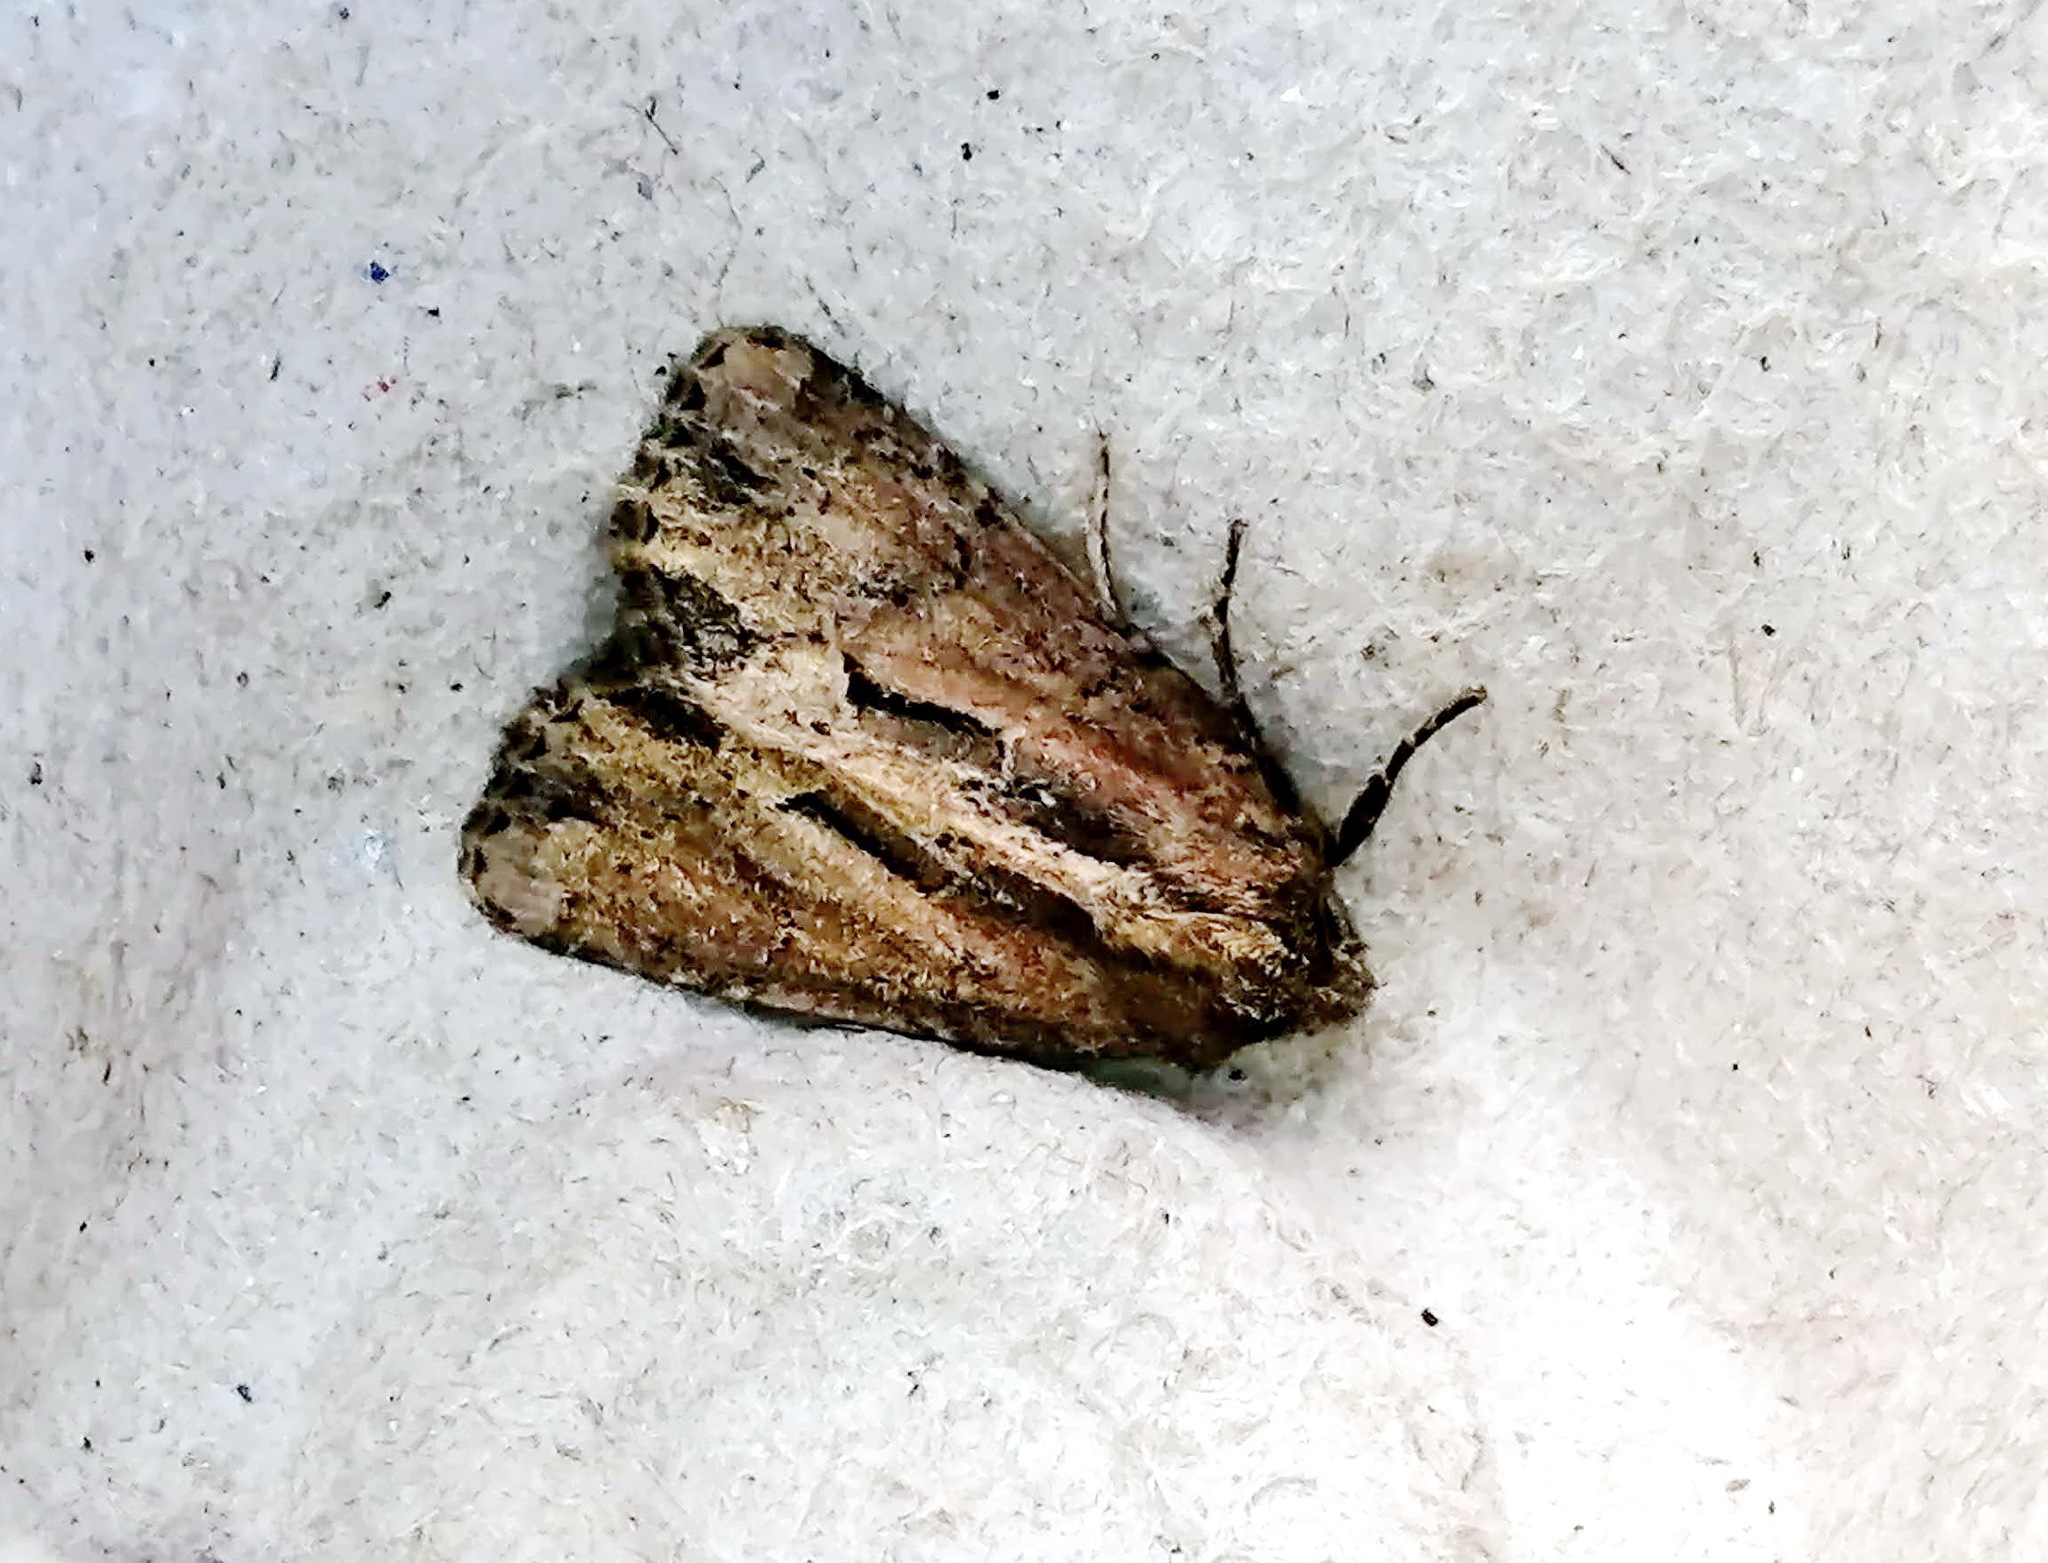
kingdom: Animalia
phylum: Arthropoda
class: Insecta
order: Lepidoptera
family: Noctuidae
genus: Xylomoia
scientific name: Xylomoia chagnoni
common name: Reed canary grass borer moth
